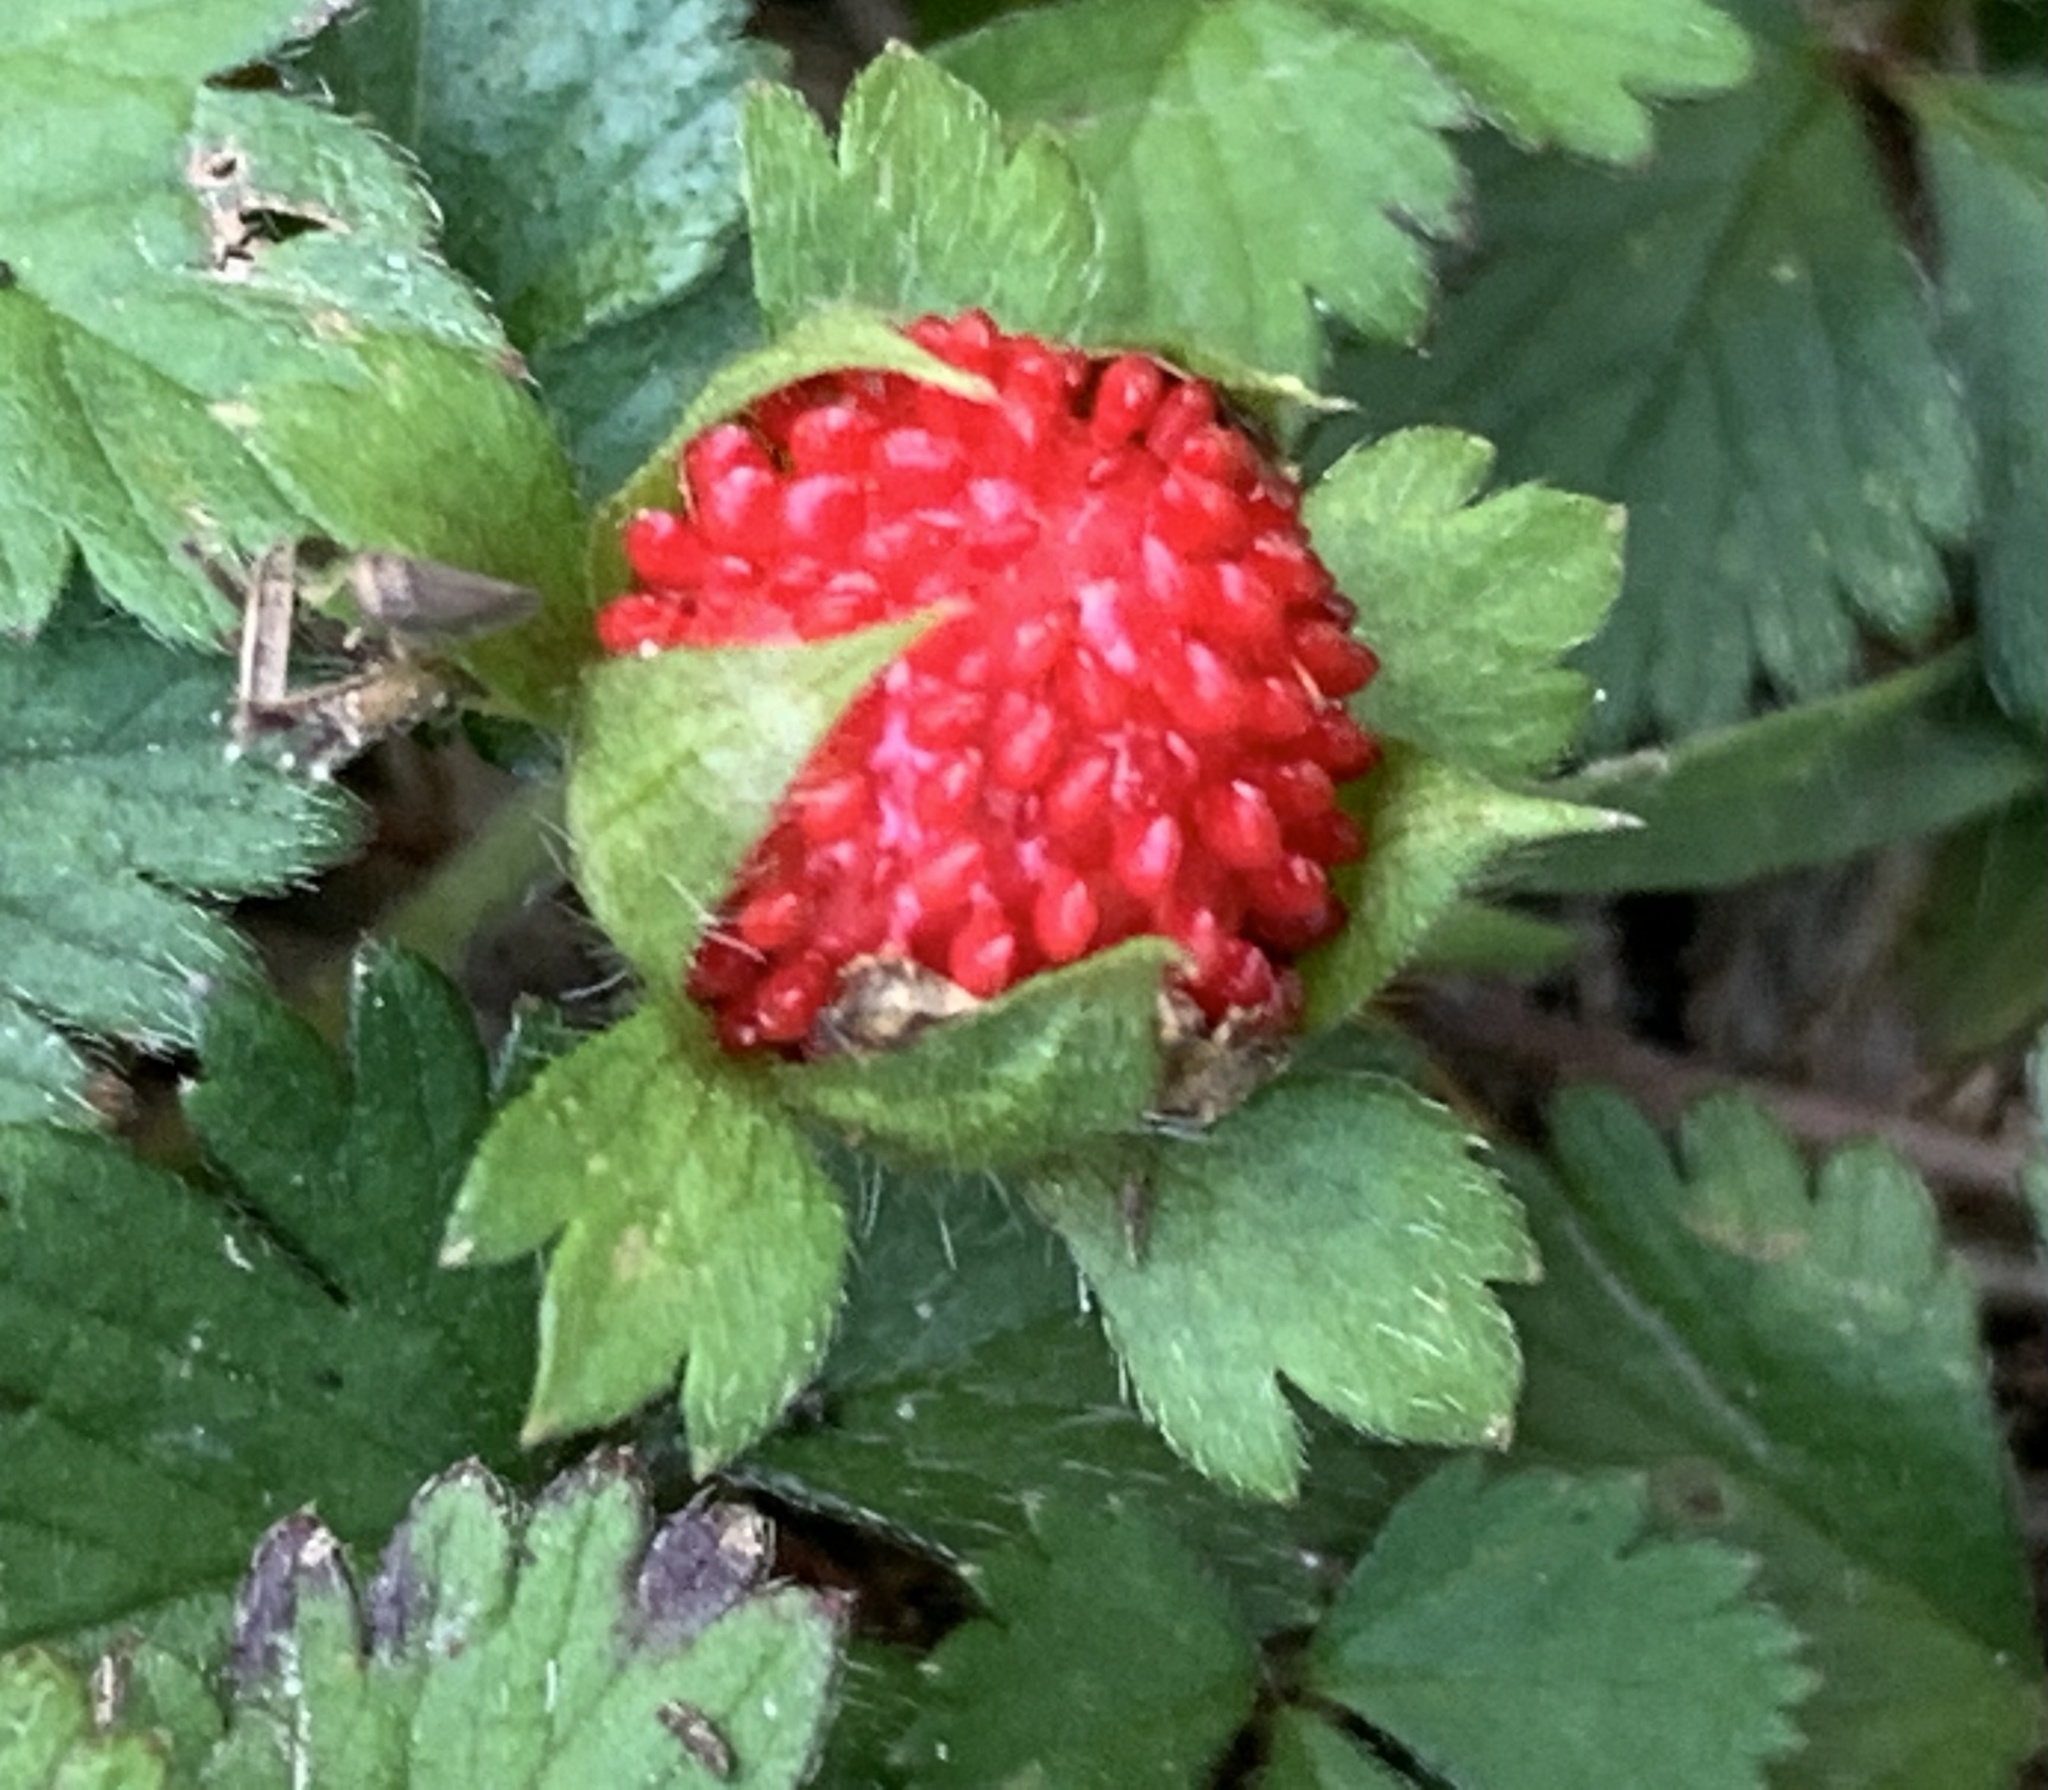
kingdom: Plantae
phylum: Tracheophyta
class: Magnoliopsida
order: Rosales
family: Rosaceae
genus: Potentilla
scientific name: Potentilla indica
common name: Yellow-flowered strawberry
